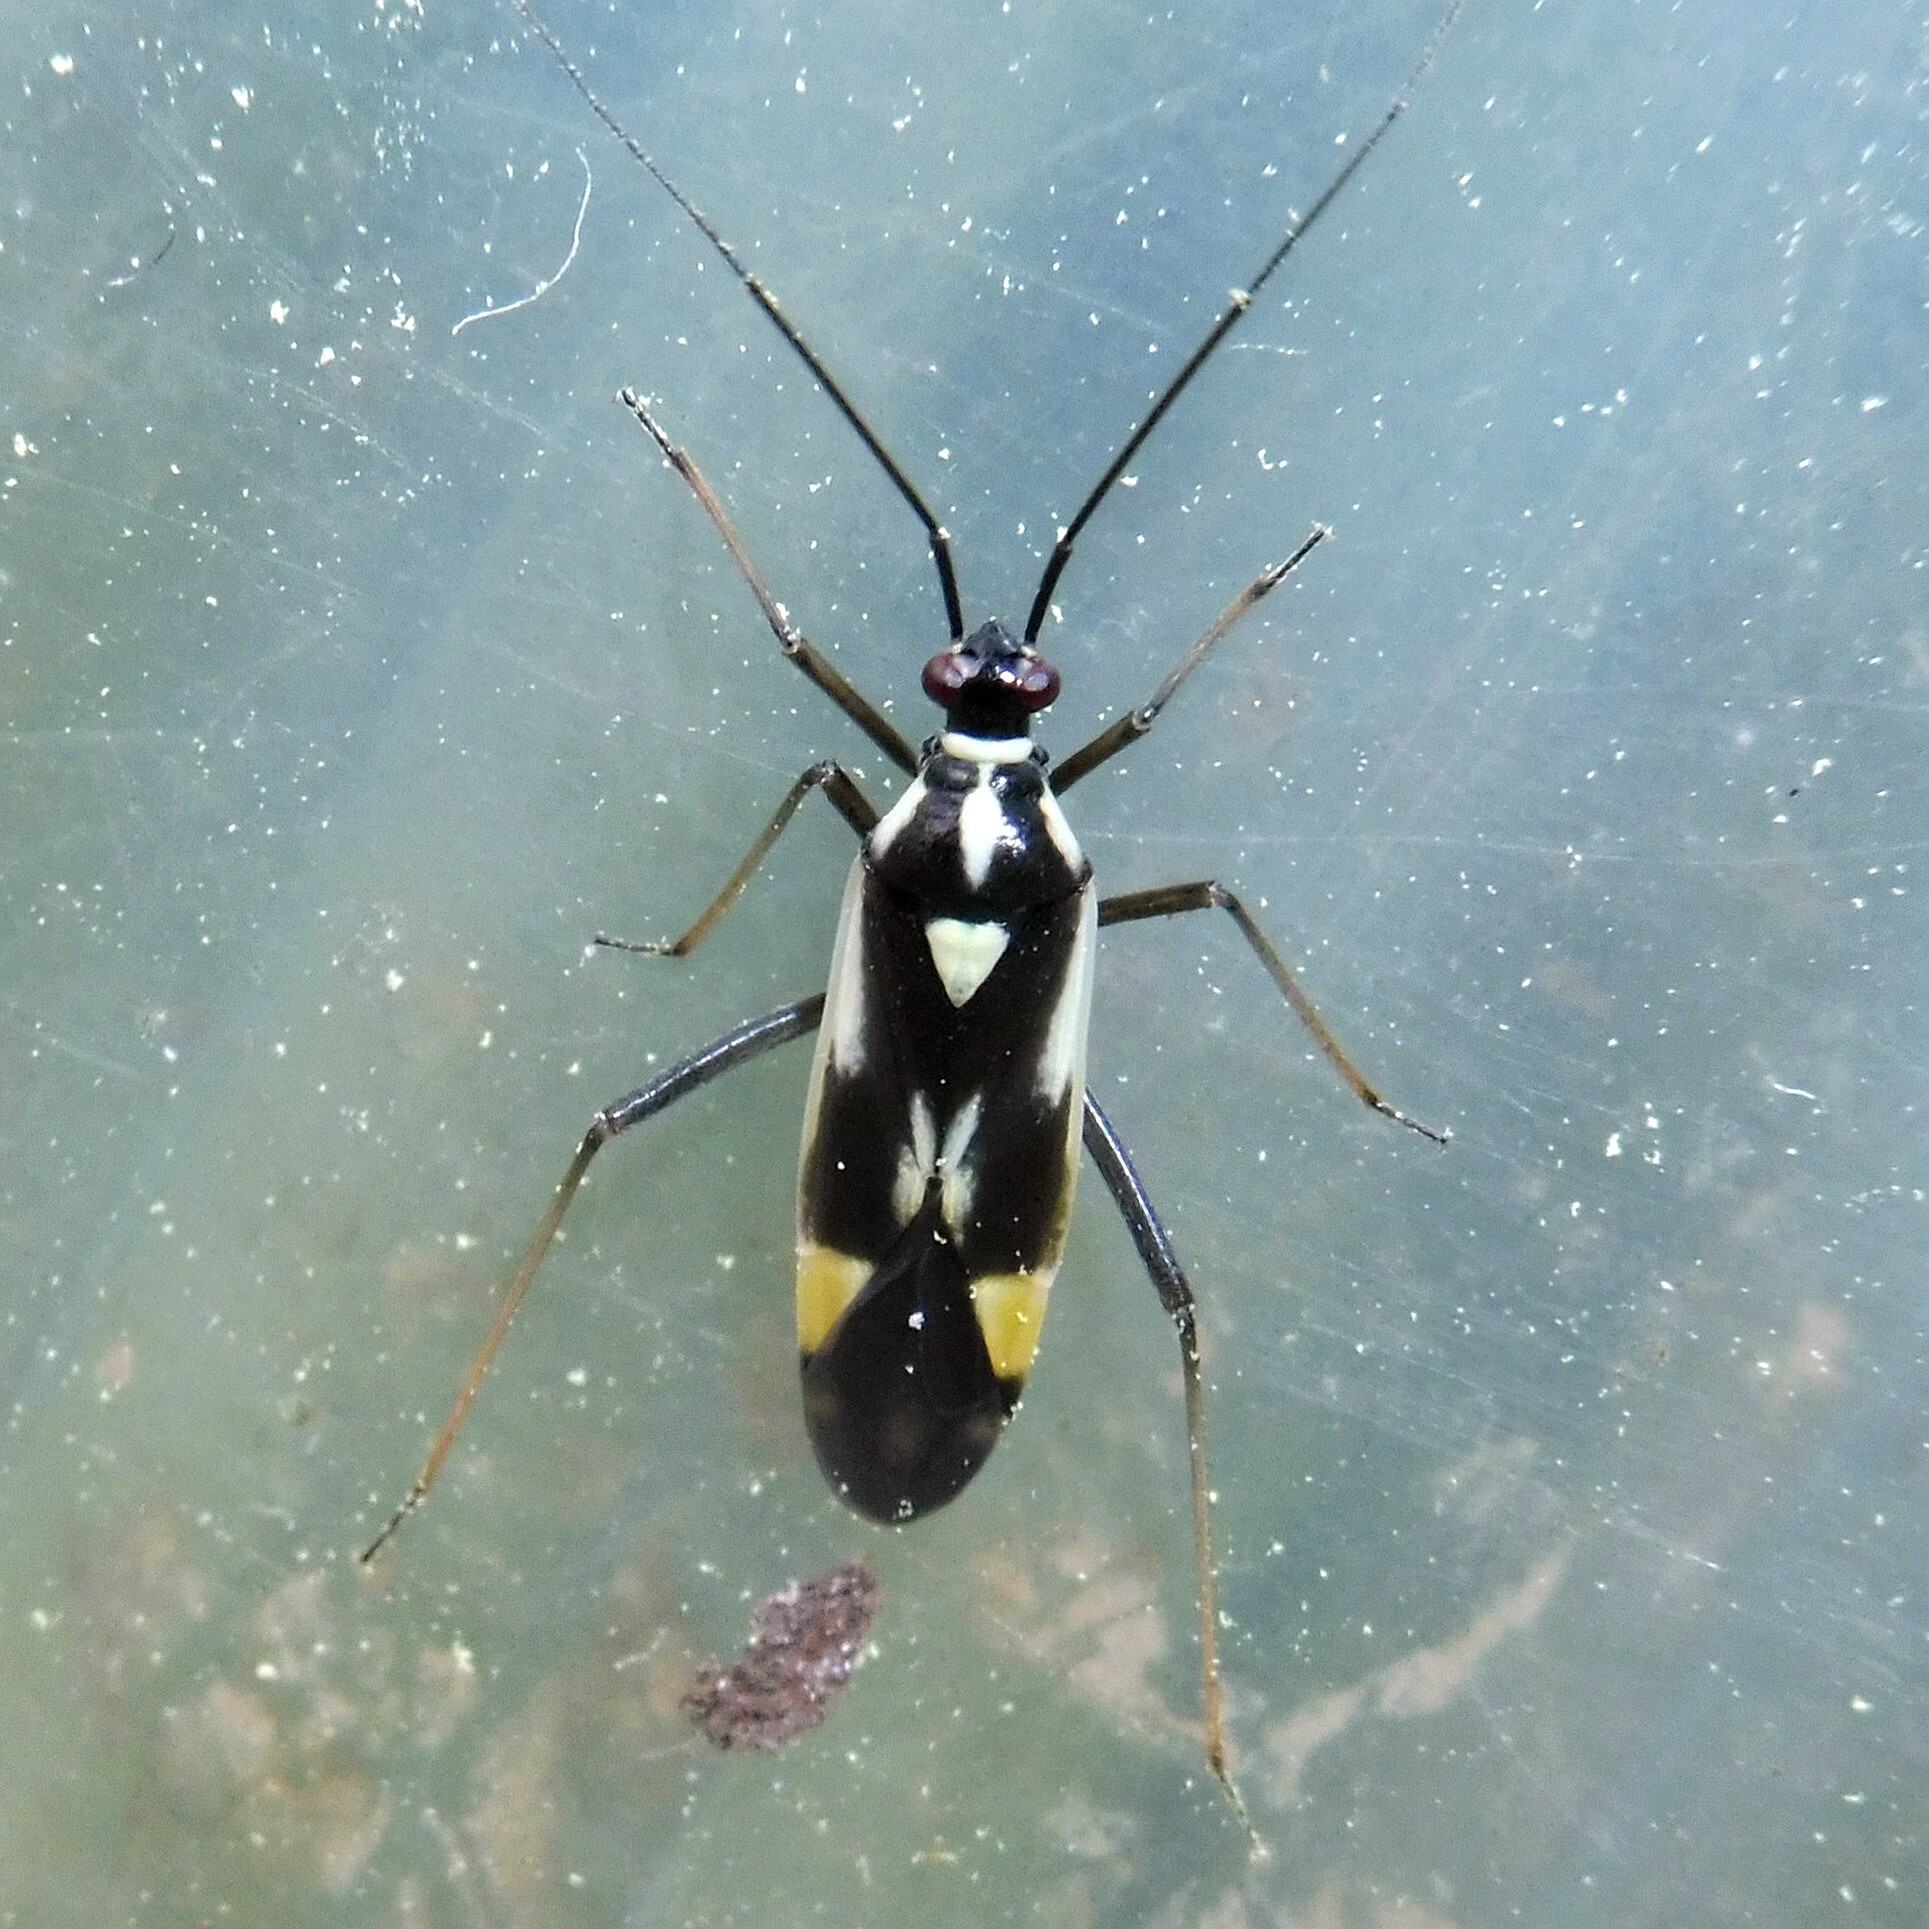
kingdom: Animalia
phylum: Arthropoda
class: Insecta
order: Hemiptera
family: Miridae
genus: Grypocoris
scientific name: Grypocoris stysi
